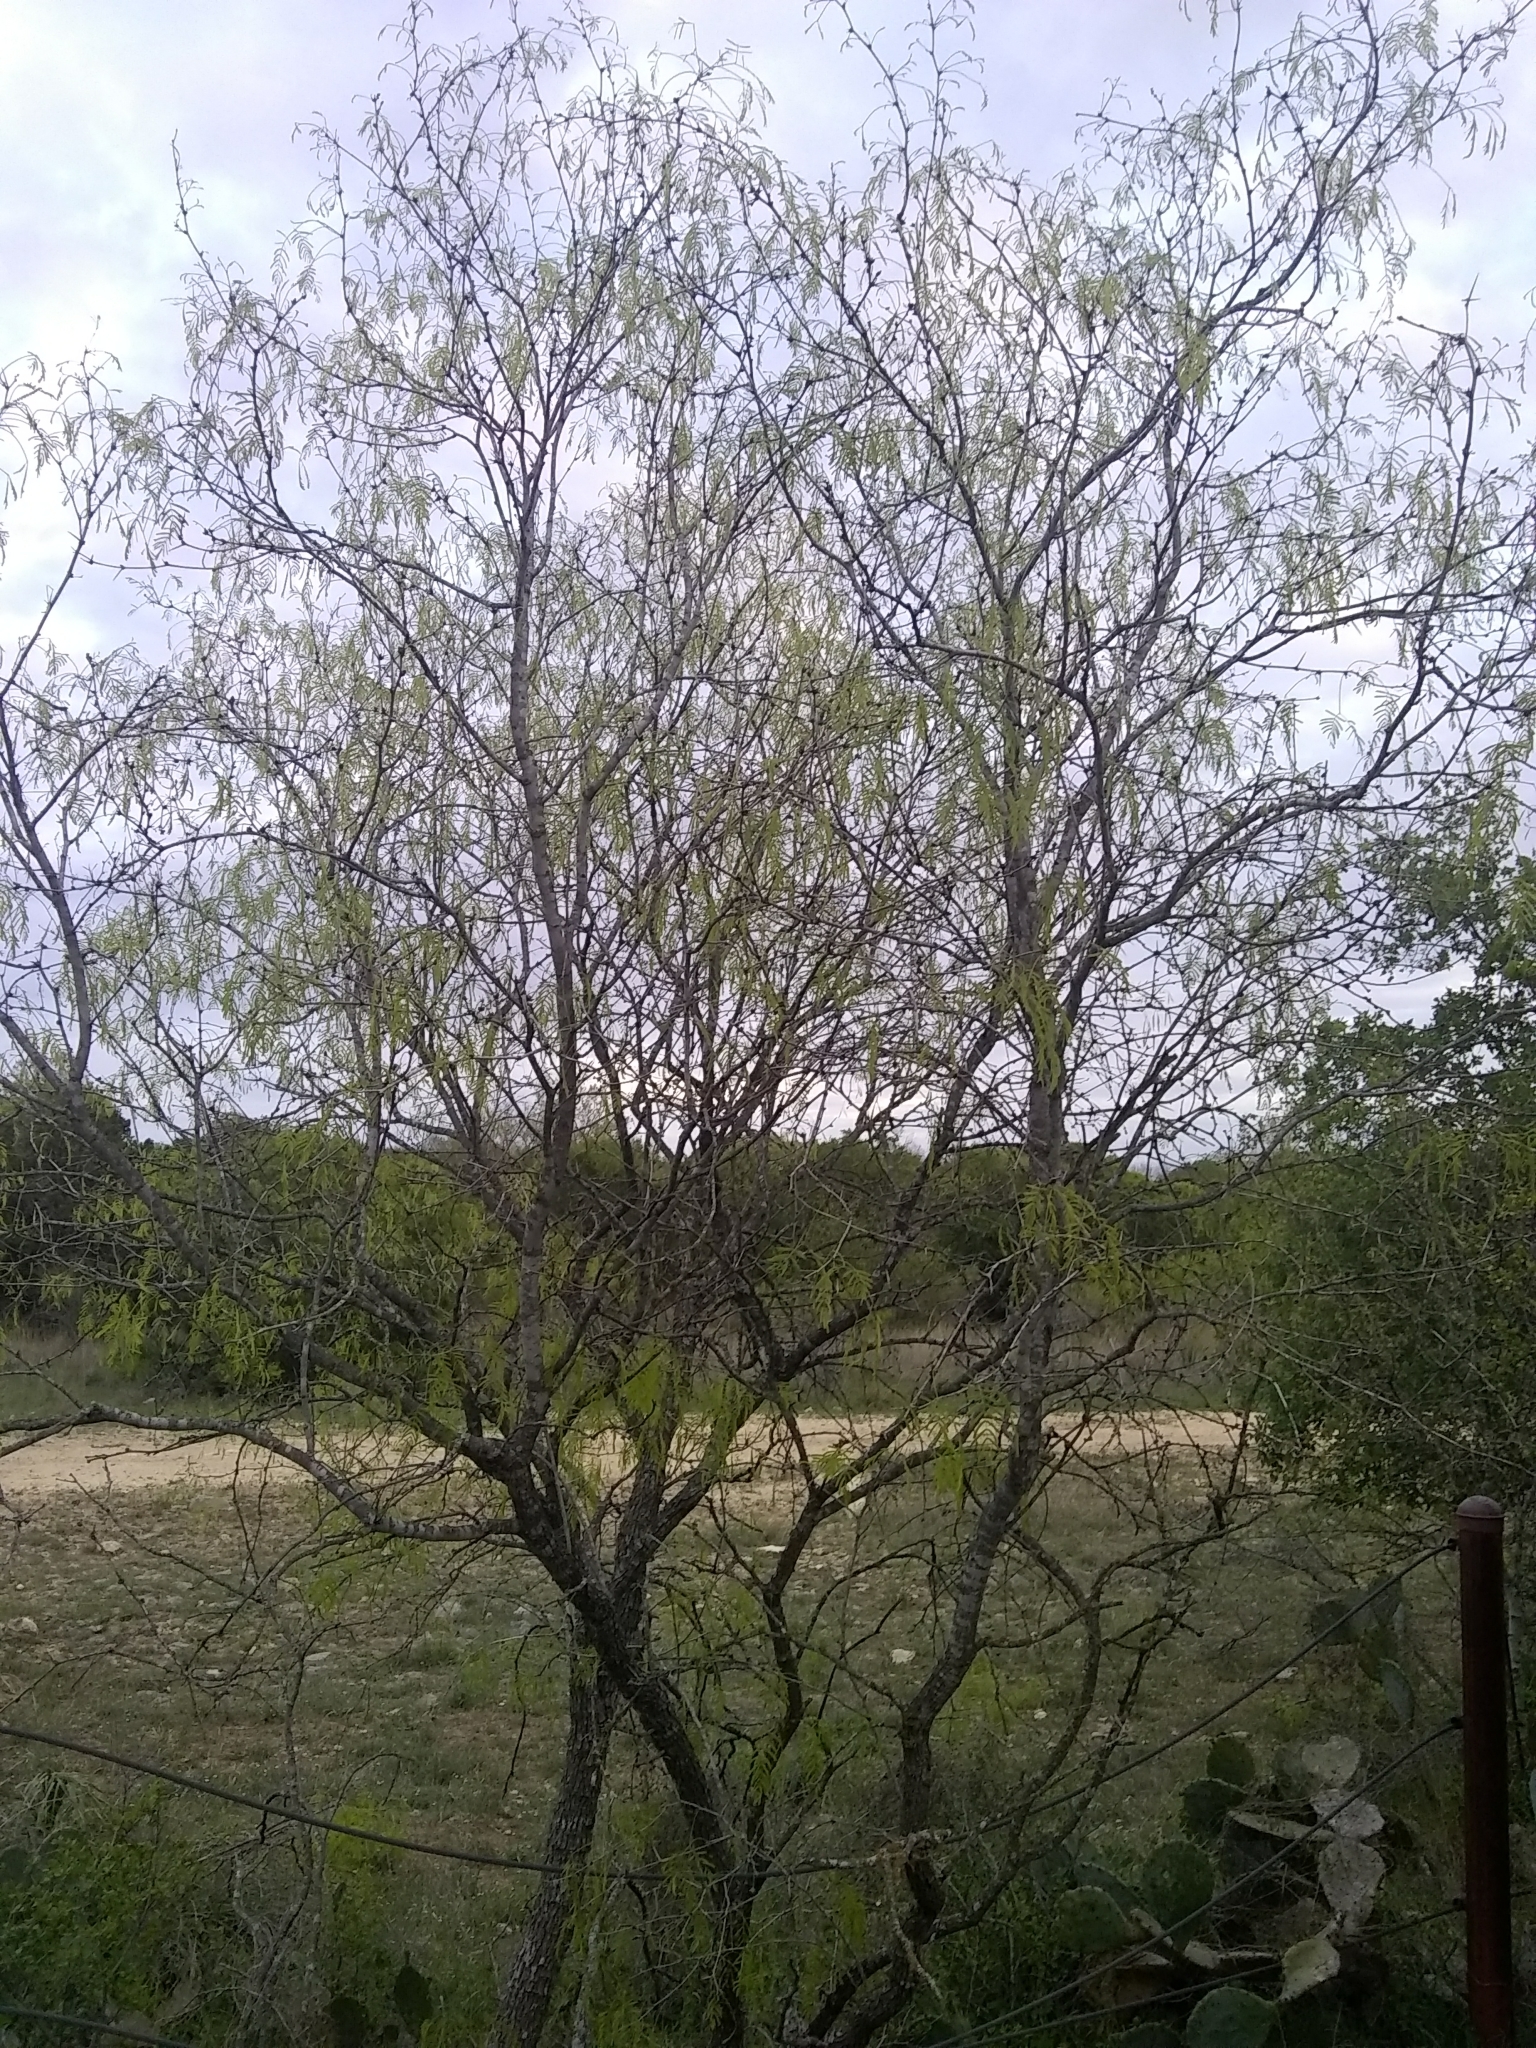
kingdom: Plantae
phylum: Tracheophyta
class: Magnoliopsida
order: Fabales
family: Fabaceae
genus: Prosopis
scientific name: Prosopis glandulosa
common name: Honey mesquite
